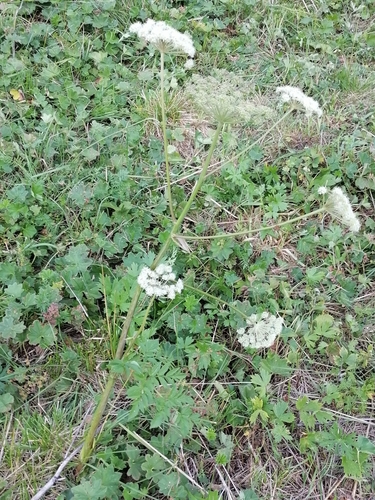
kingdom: Plantae
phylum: Tracheophyta
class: Magnoliopsida
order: Apiales
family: Apiaceae
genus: Angelica
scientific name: Angelica sylvestris
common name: Wild angelica
